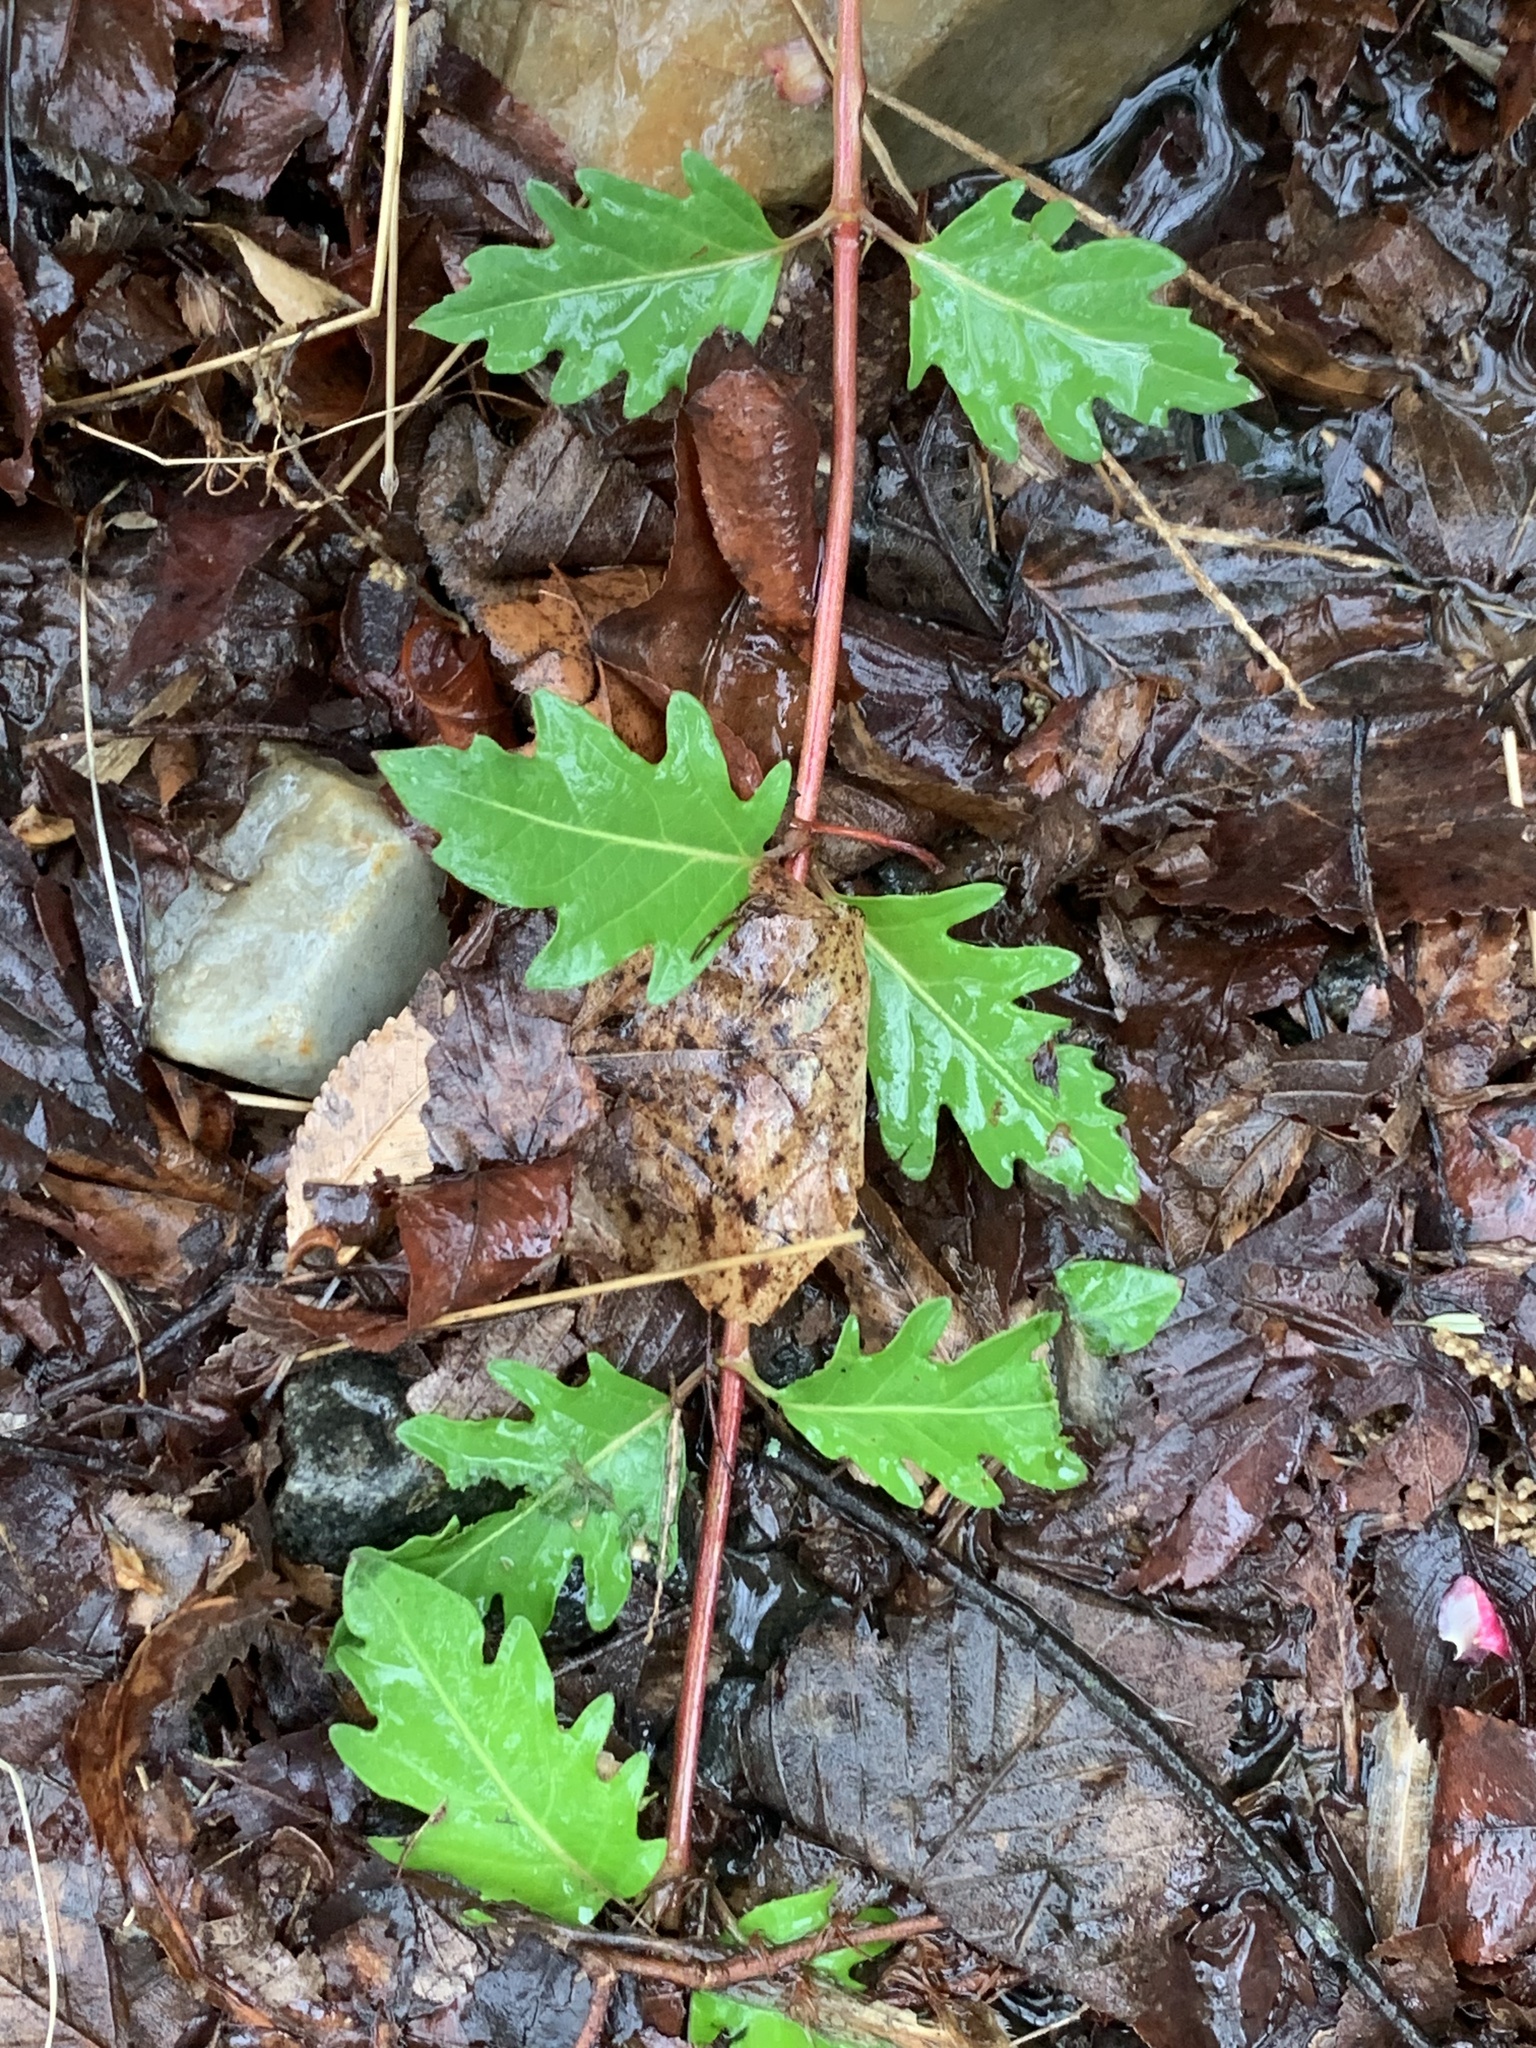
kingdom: Plantae
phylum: Tracheophyta
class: Magnoliopsida
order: Dipsacales
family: Caprifoliaceae
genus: Lonicera
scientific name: Lonicera japonica
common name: Japanese honeysuckle
